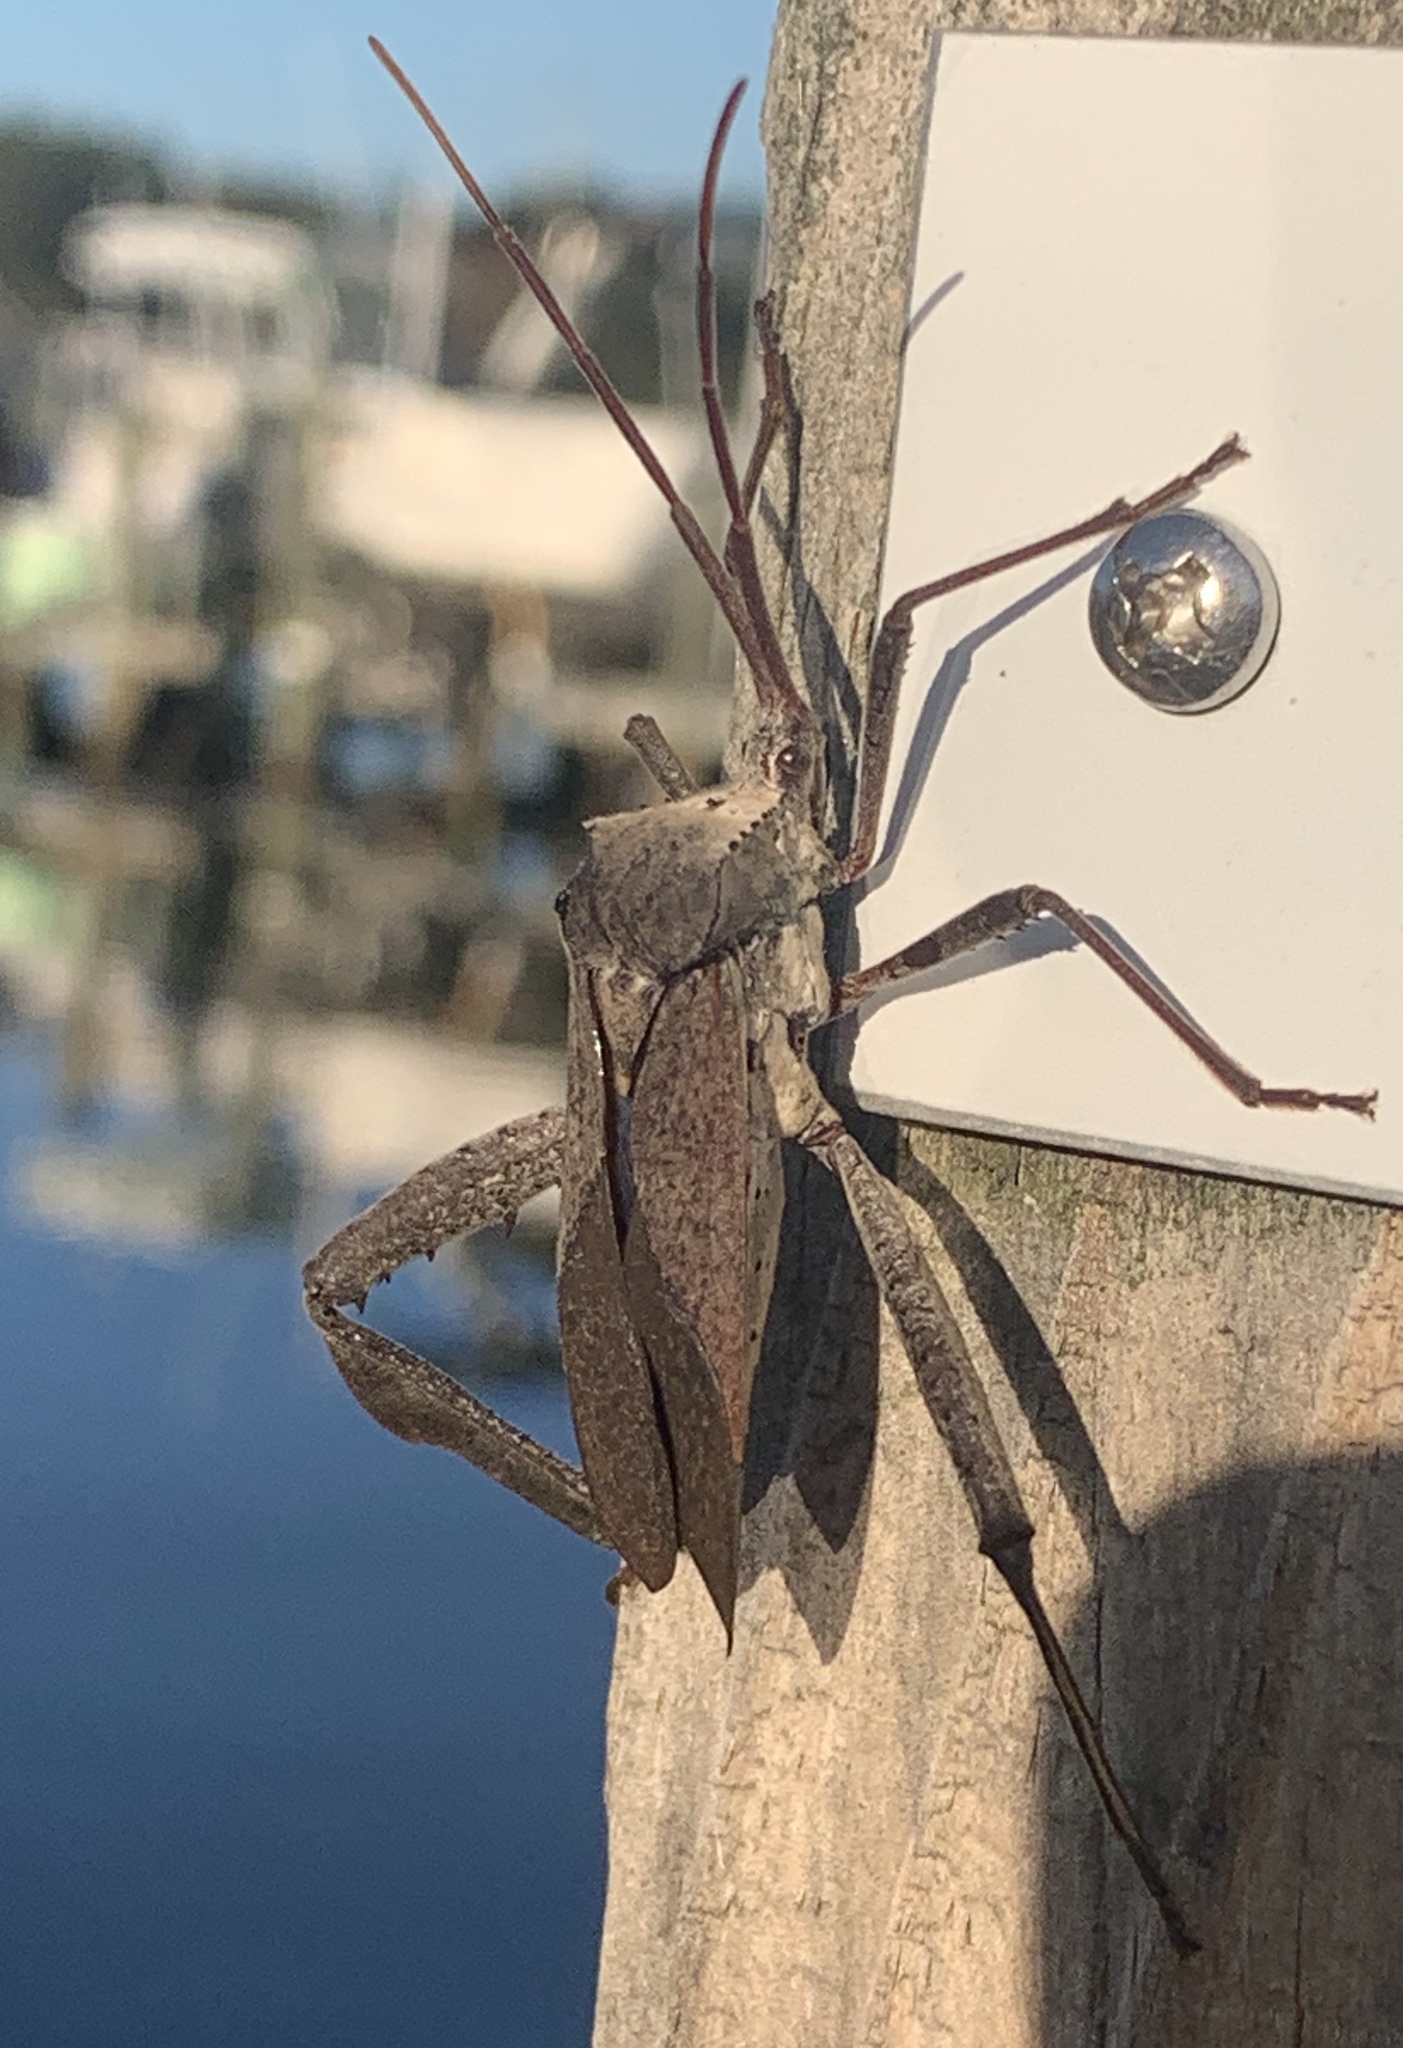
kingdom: Animalia
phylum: Arthropoda
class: Insecta
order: Hemiptera
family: Coreidae
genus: Acanthocephala
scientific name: Acanthocephala declivis
